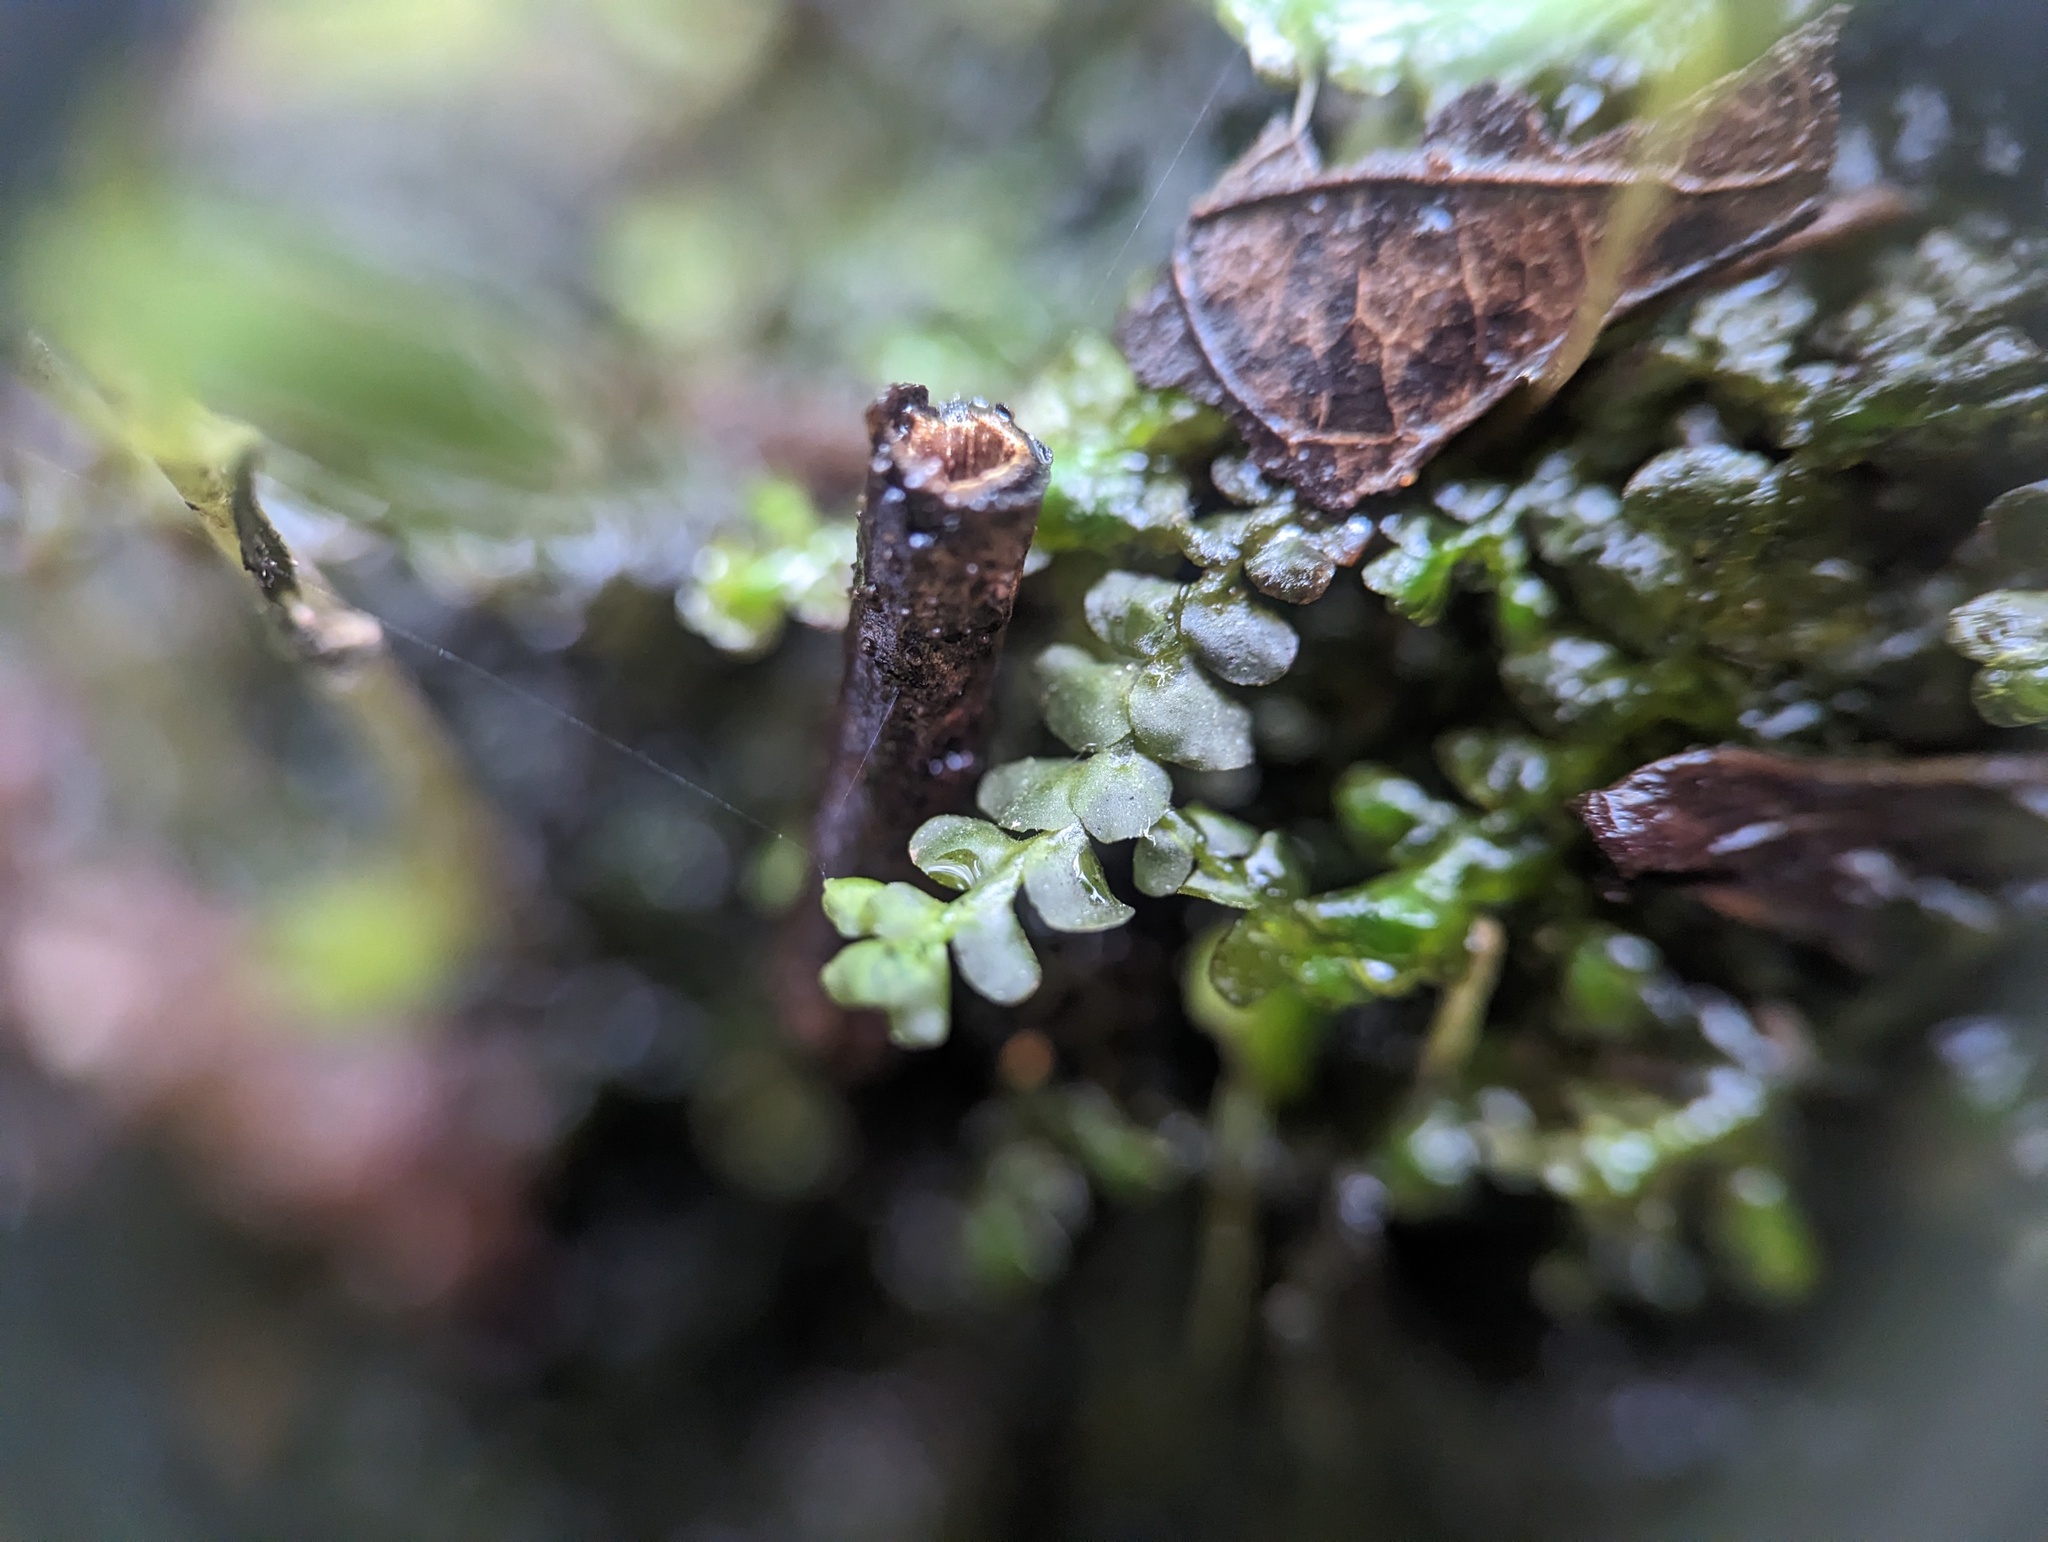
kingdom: Plantae
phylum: Marchantiophyta
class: Jungermanniopsida
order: Porellales
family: Porellaceae
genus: Porella
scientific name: Porella pinnata
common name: Pinnate scalewort
